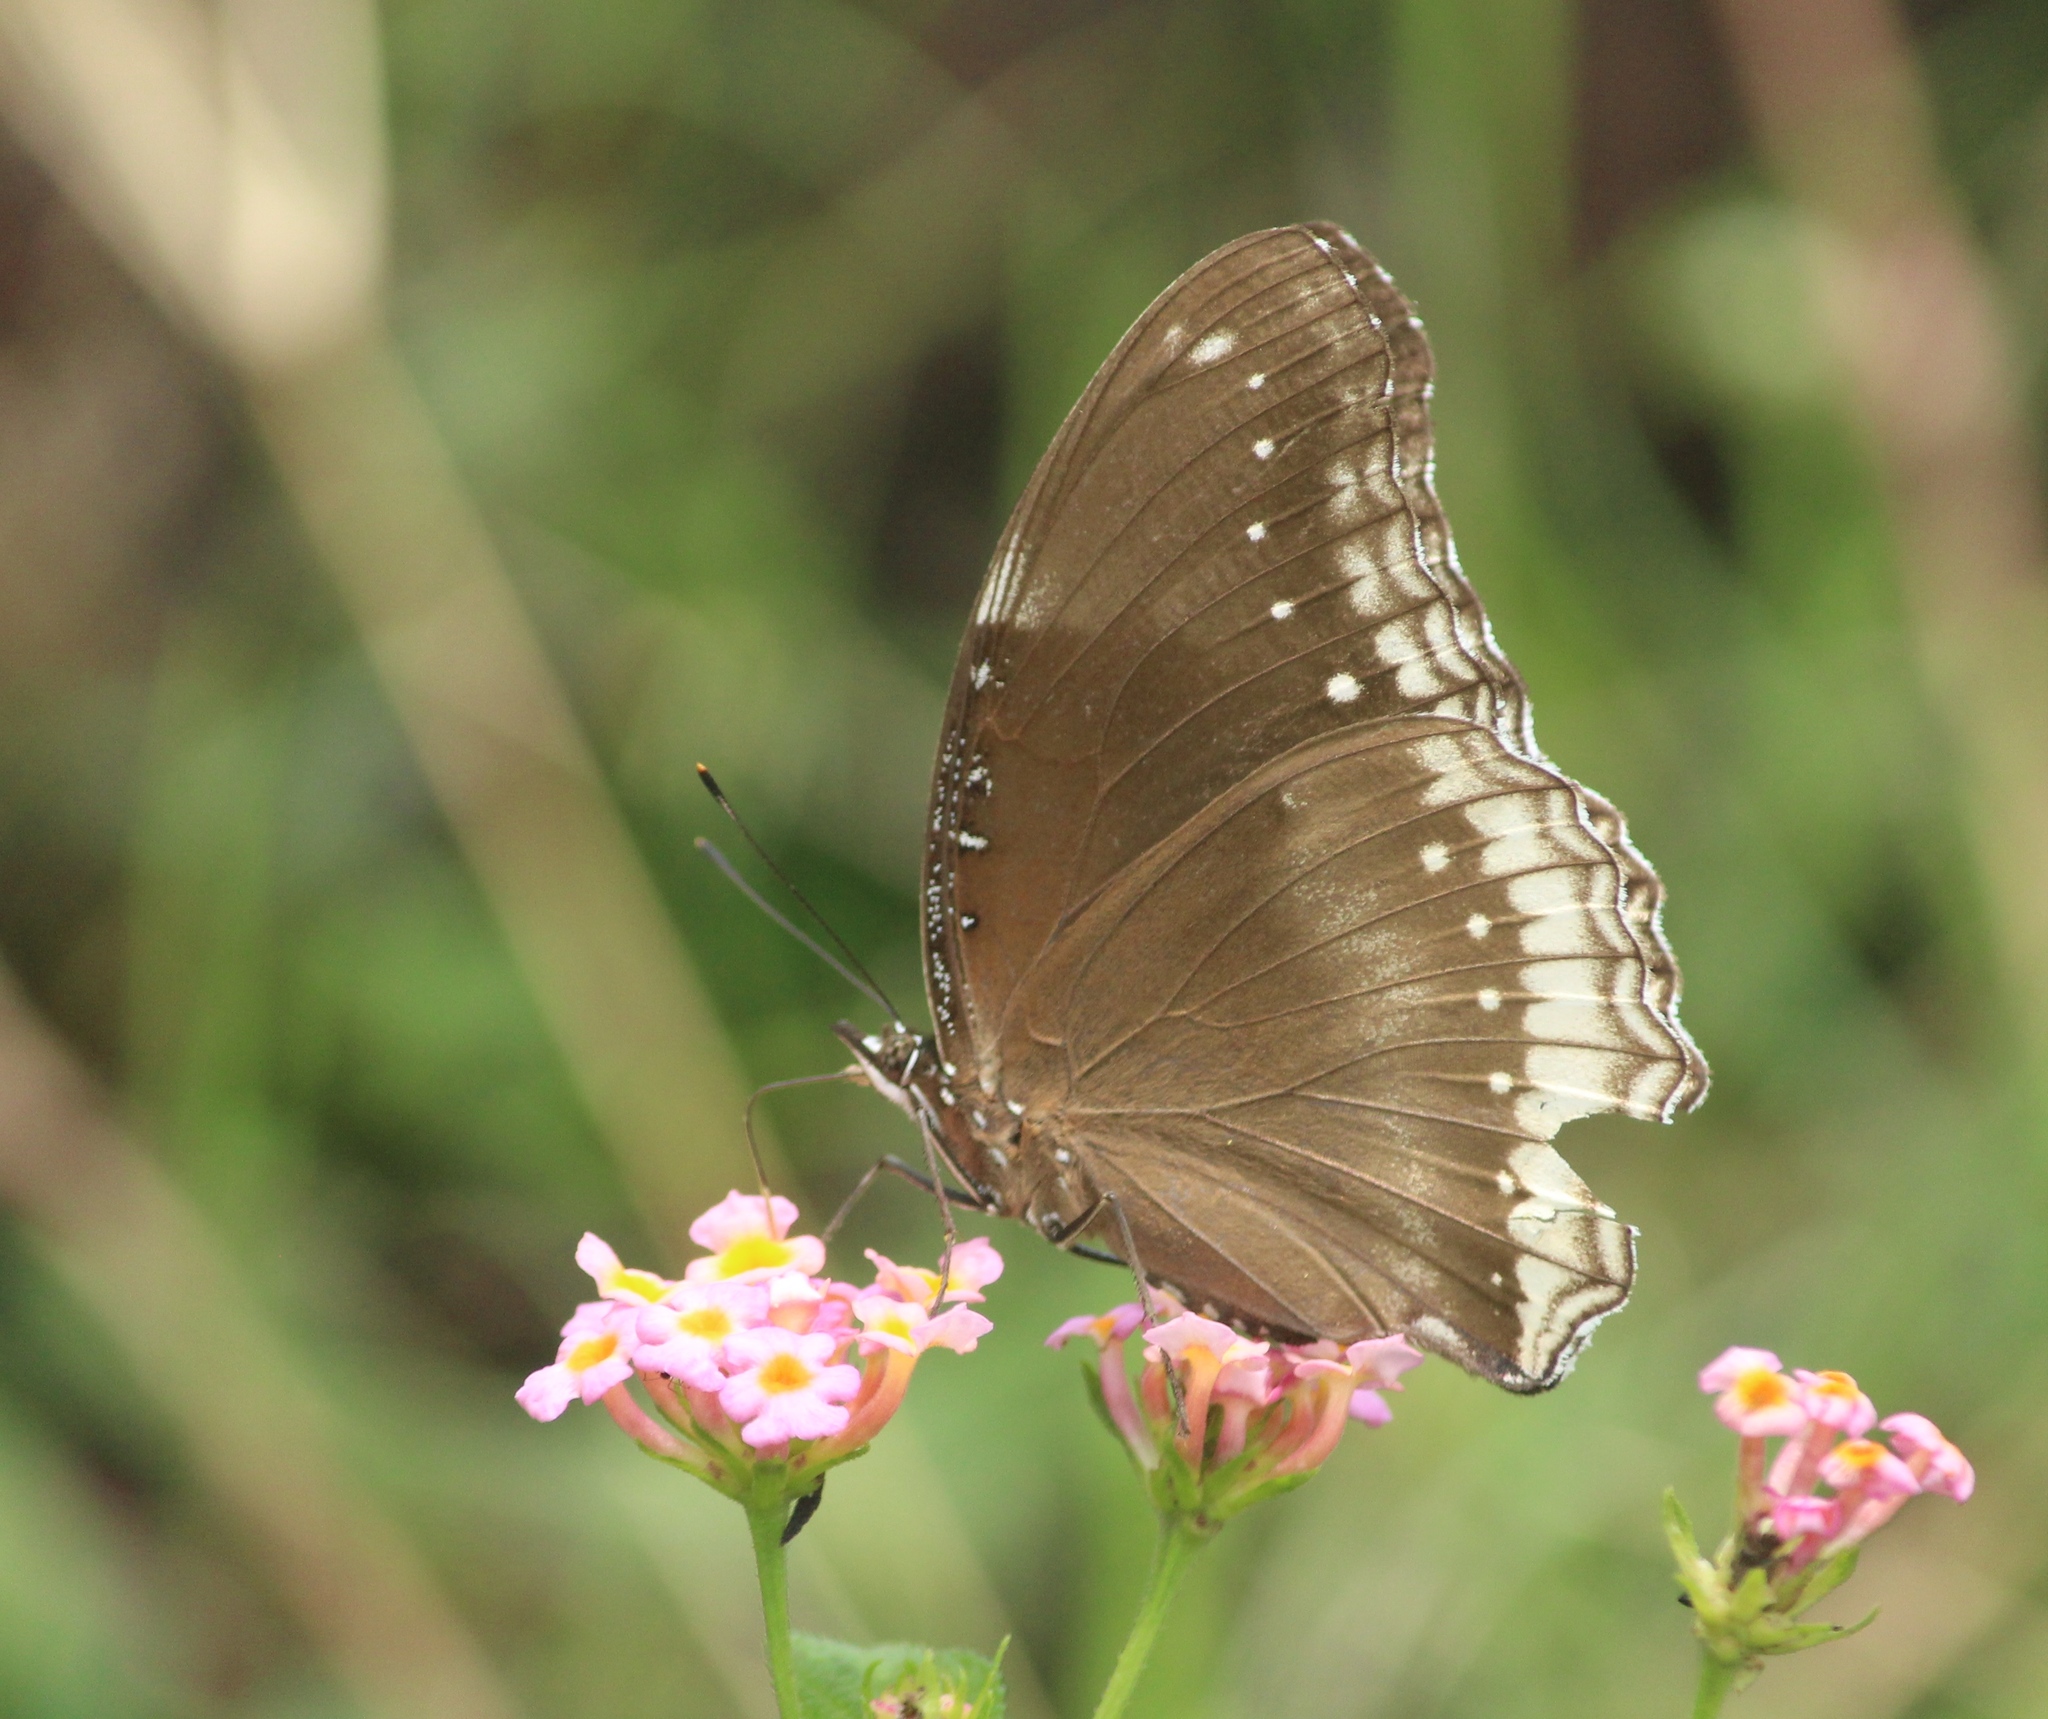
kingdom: Animalia
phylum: Arthropoda
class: Insecta
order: Lepidoptera
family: Nymphalidae
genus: Hypolimnas
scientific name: Hypolimnas bolina
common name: Great eggfly
